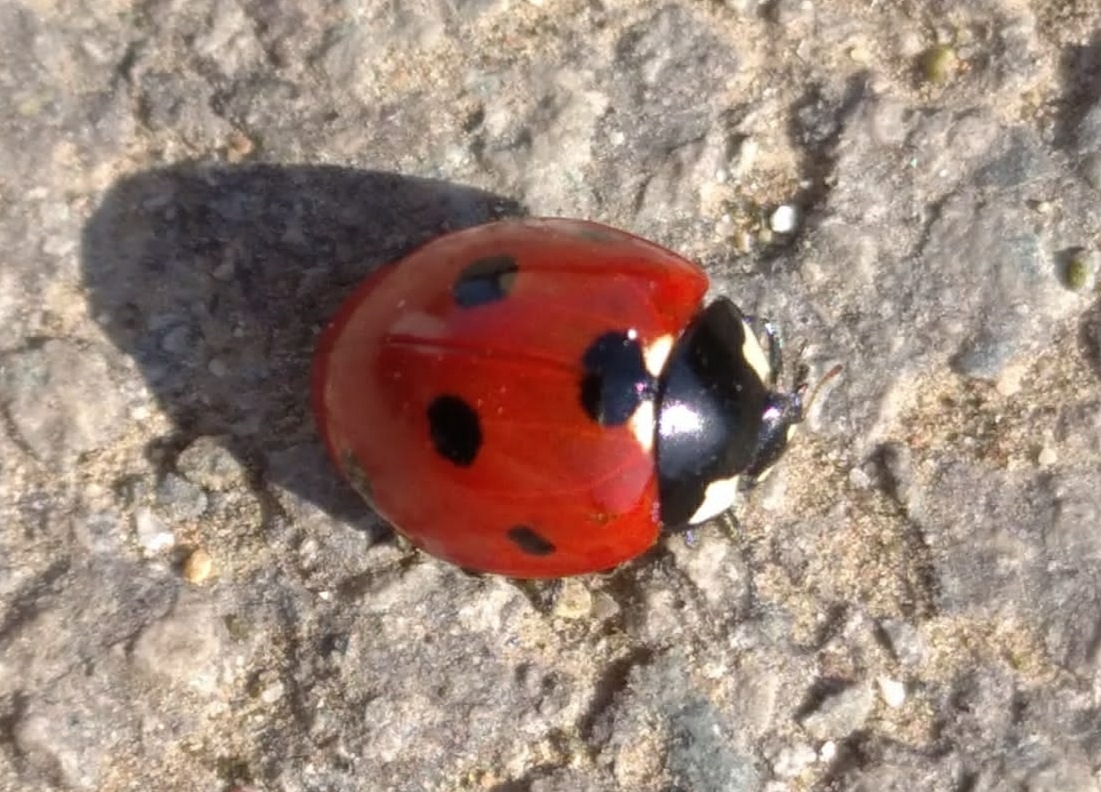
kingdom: Animalia
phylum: Arthropoda
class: Insecta
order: Coleoptera
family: Coccinellidae
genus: Coccinella
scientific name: Coccinella septempunctata
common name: Sevenspotted lady beetle
